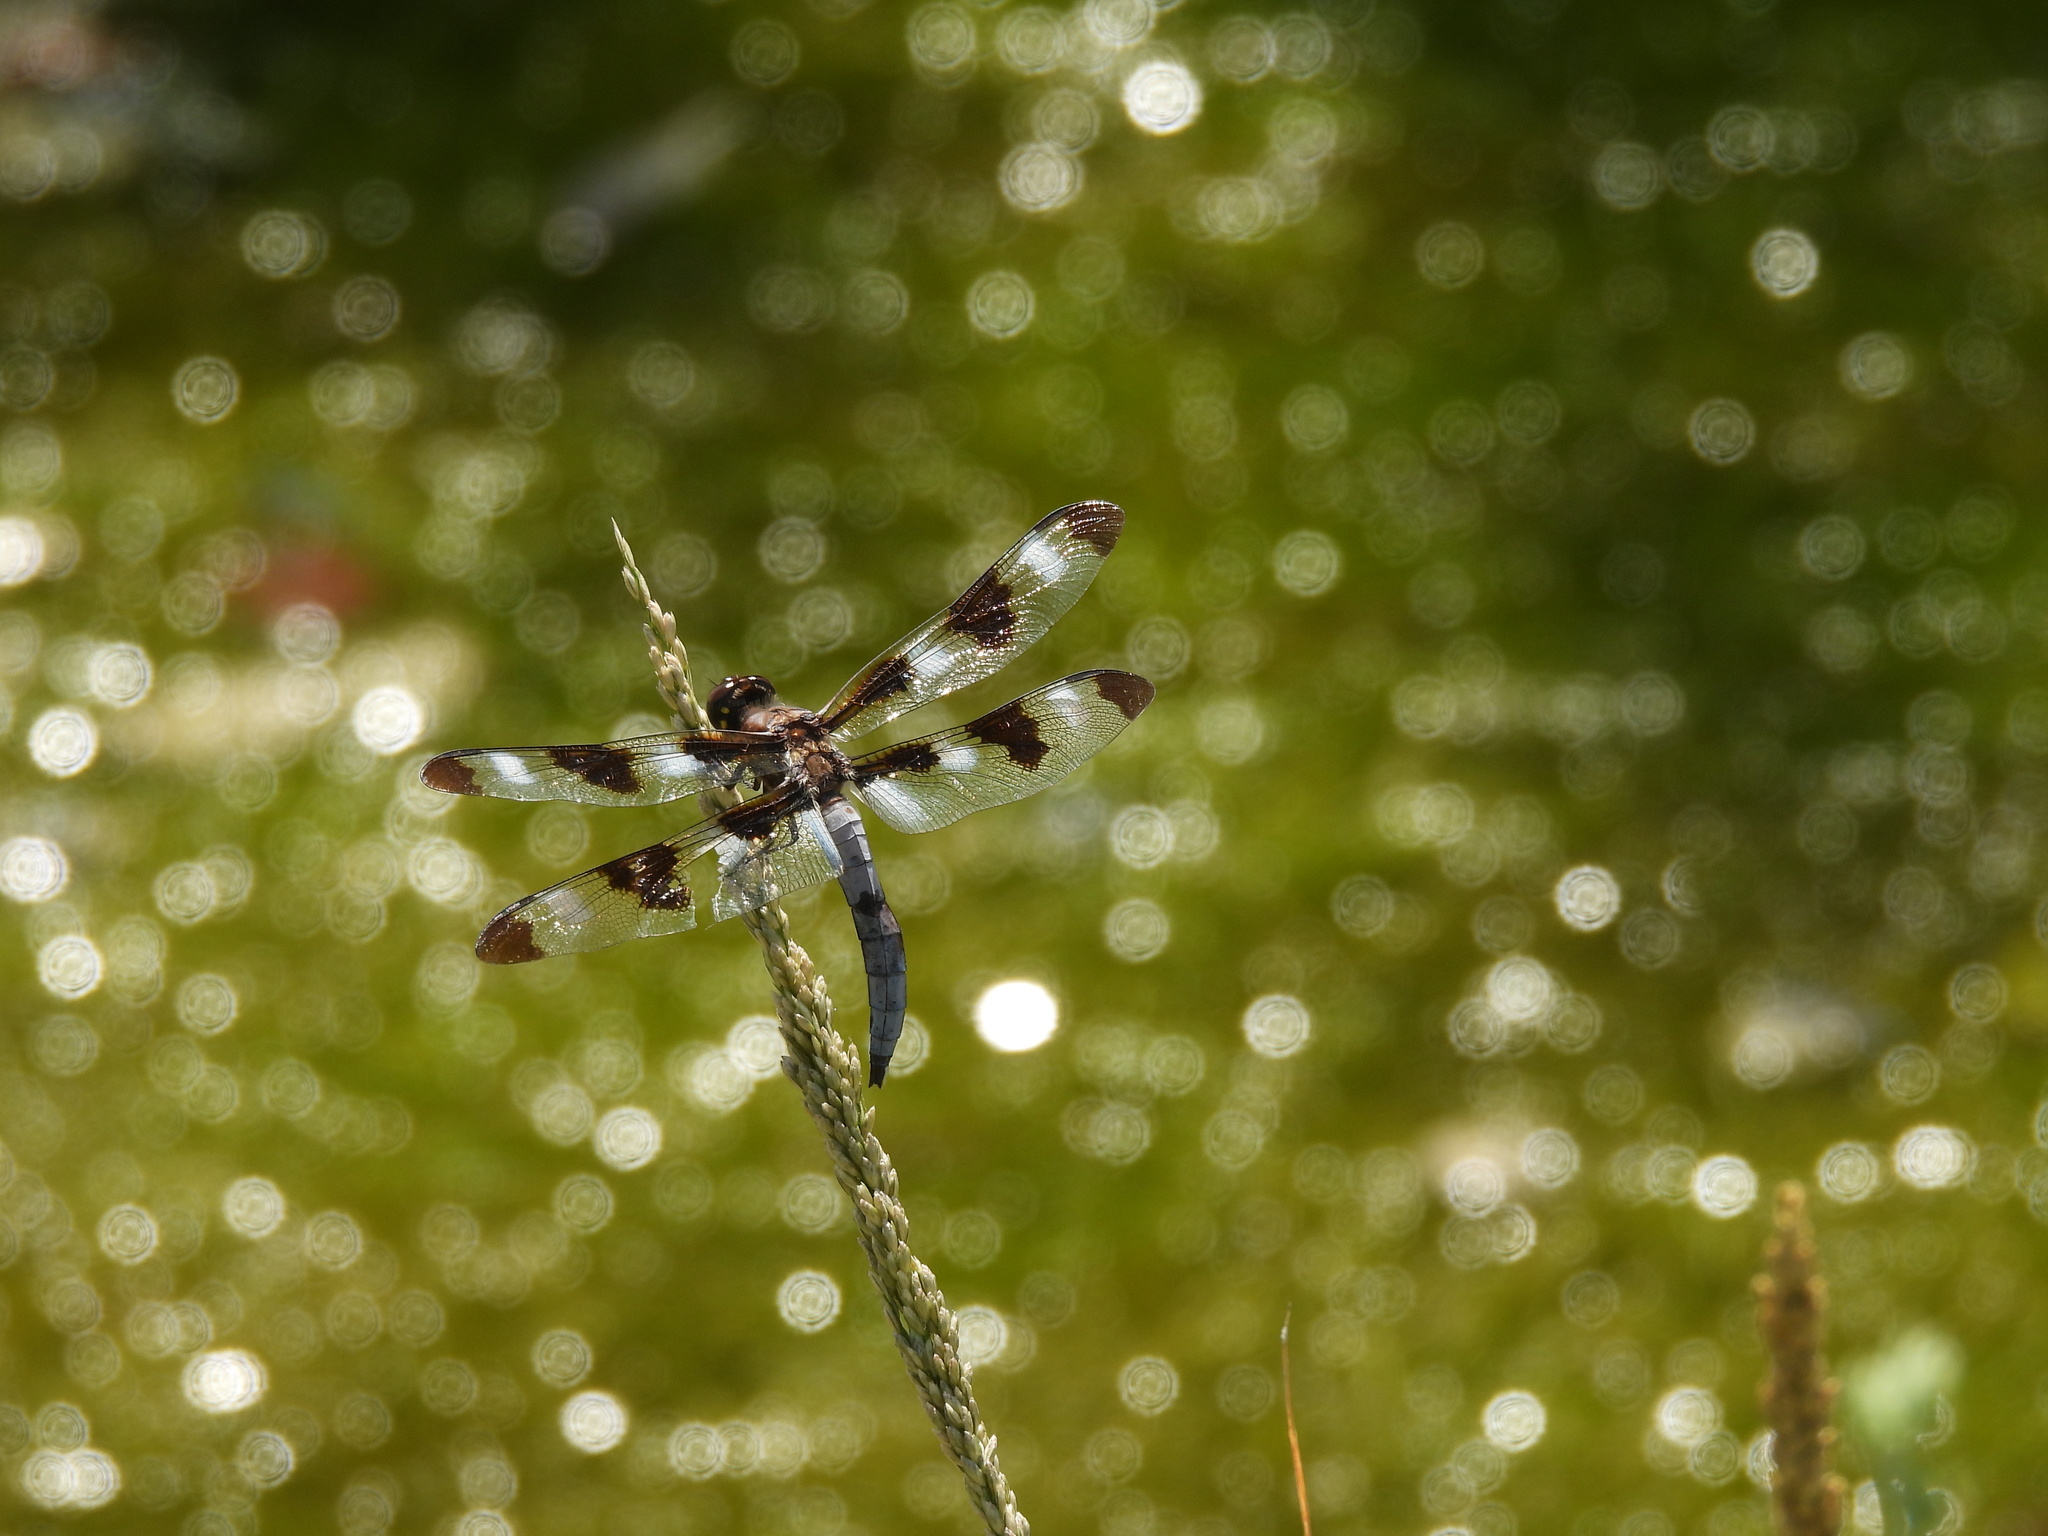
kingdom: Animalia
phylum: Arthropoda
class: Insecta
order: Odonata
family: Libellulidae
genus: Libellula
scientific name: Libellula pulchella
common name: Twelve-spotted skimmer
